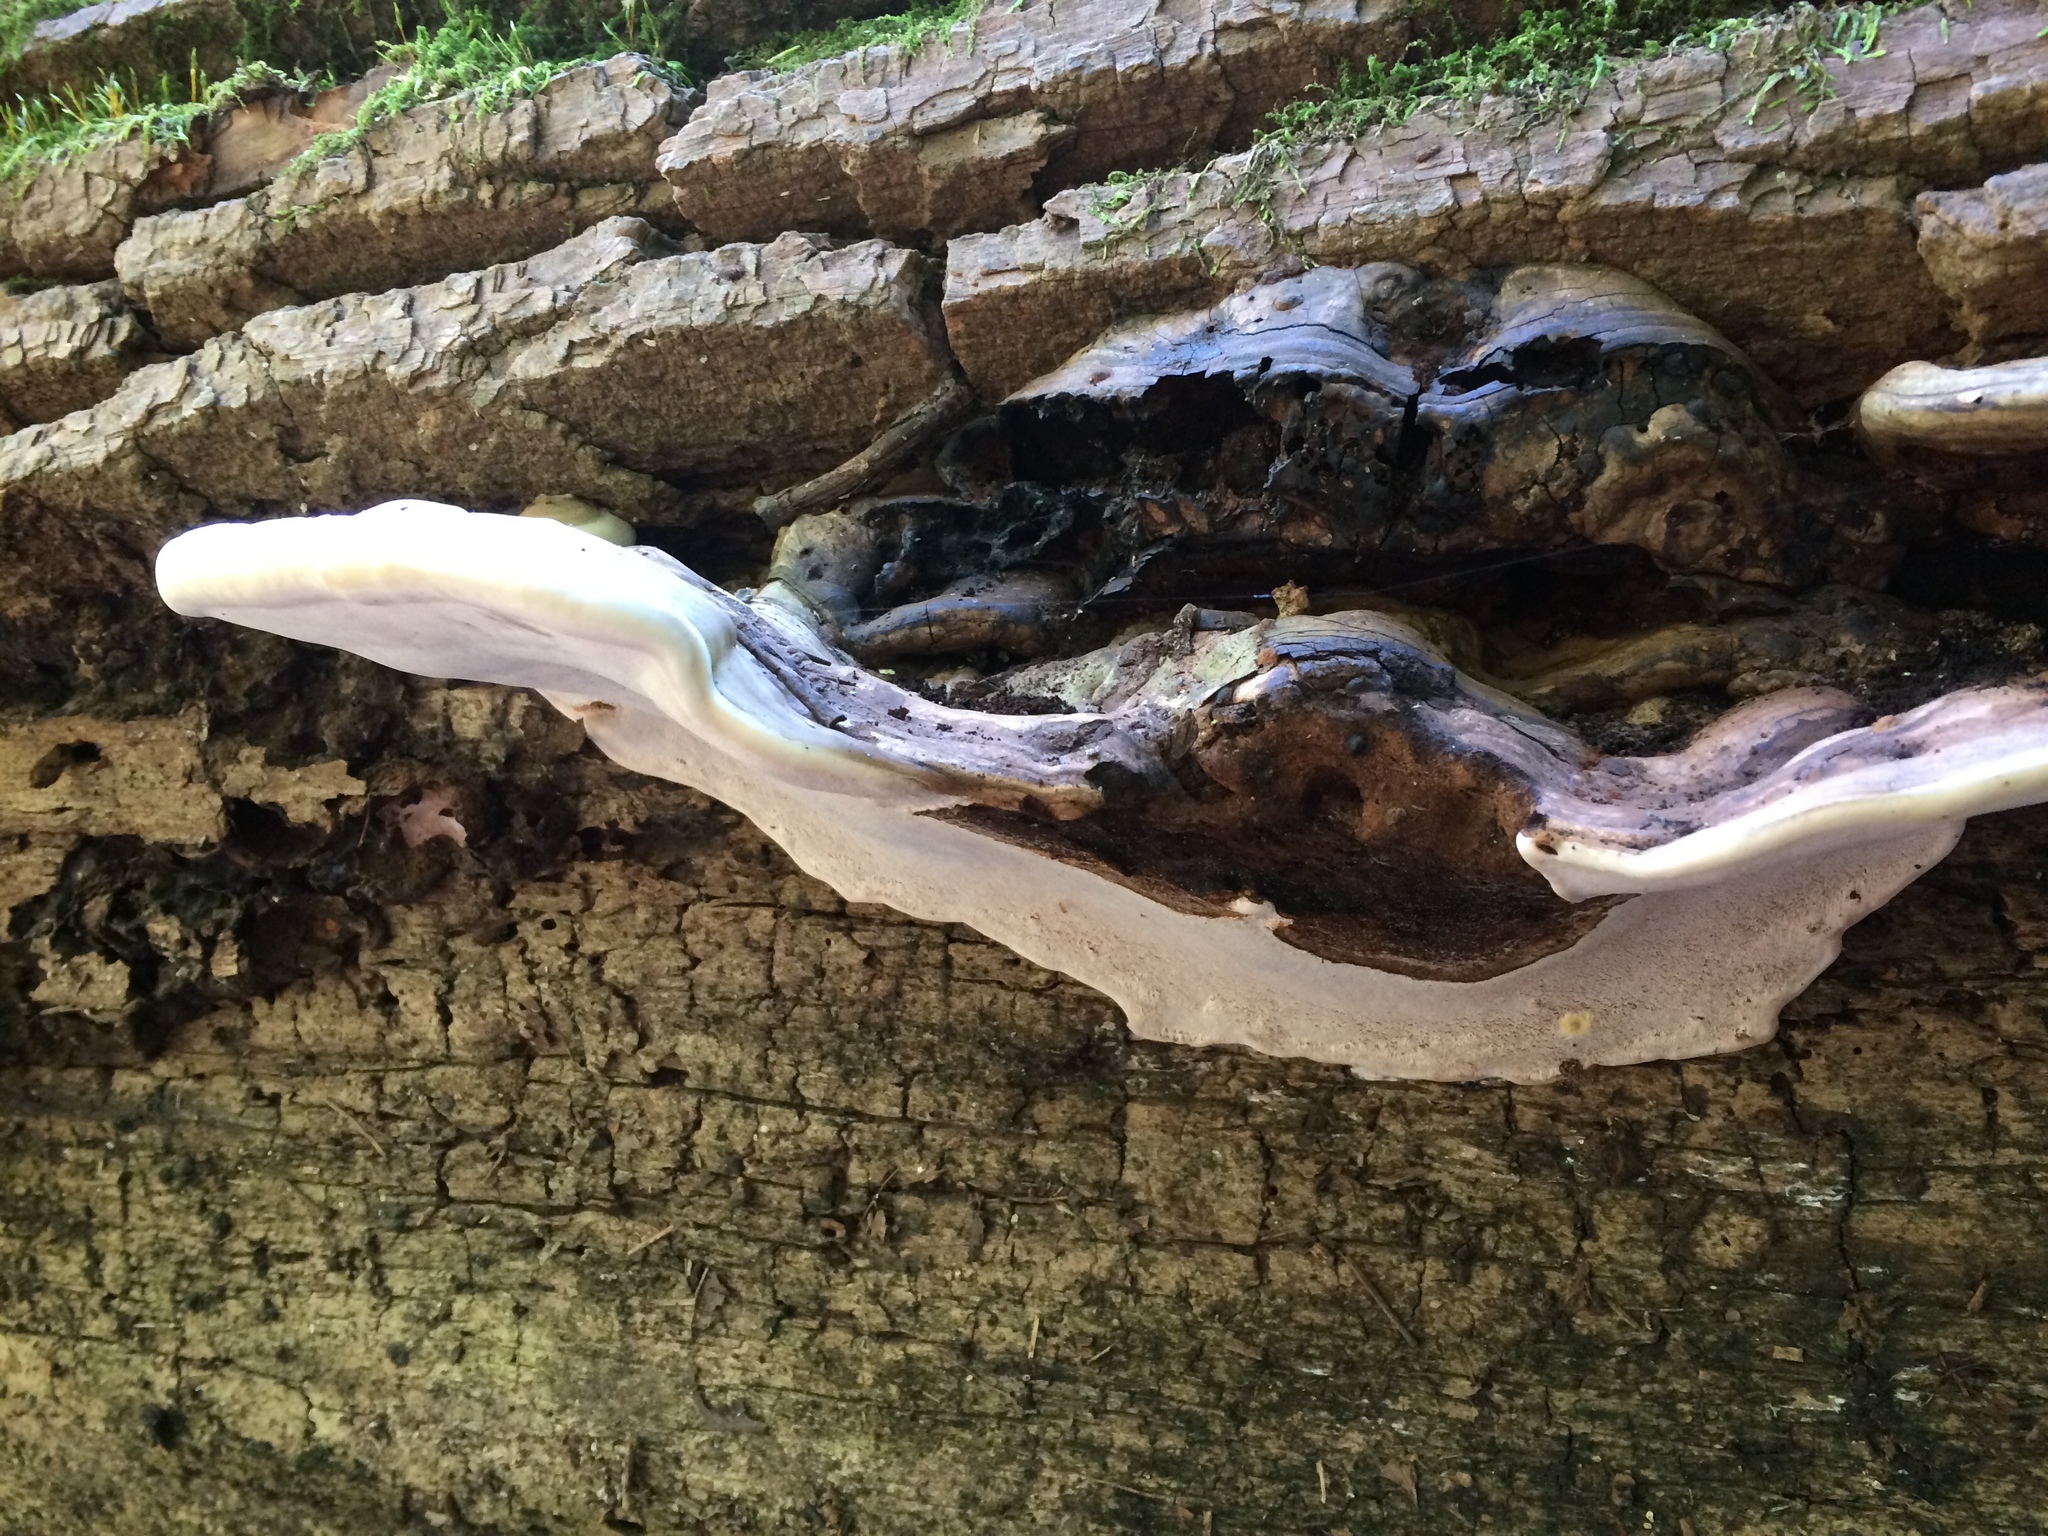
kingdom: Fungi
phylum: Basidiomycota
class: Agaricomycetes
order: Polyporales
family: Polyporaceae
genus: Ganoderma
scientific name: Ganoderma applanatum
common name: Artist's bracket
